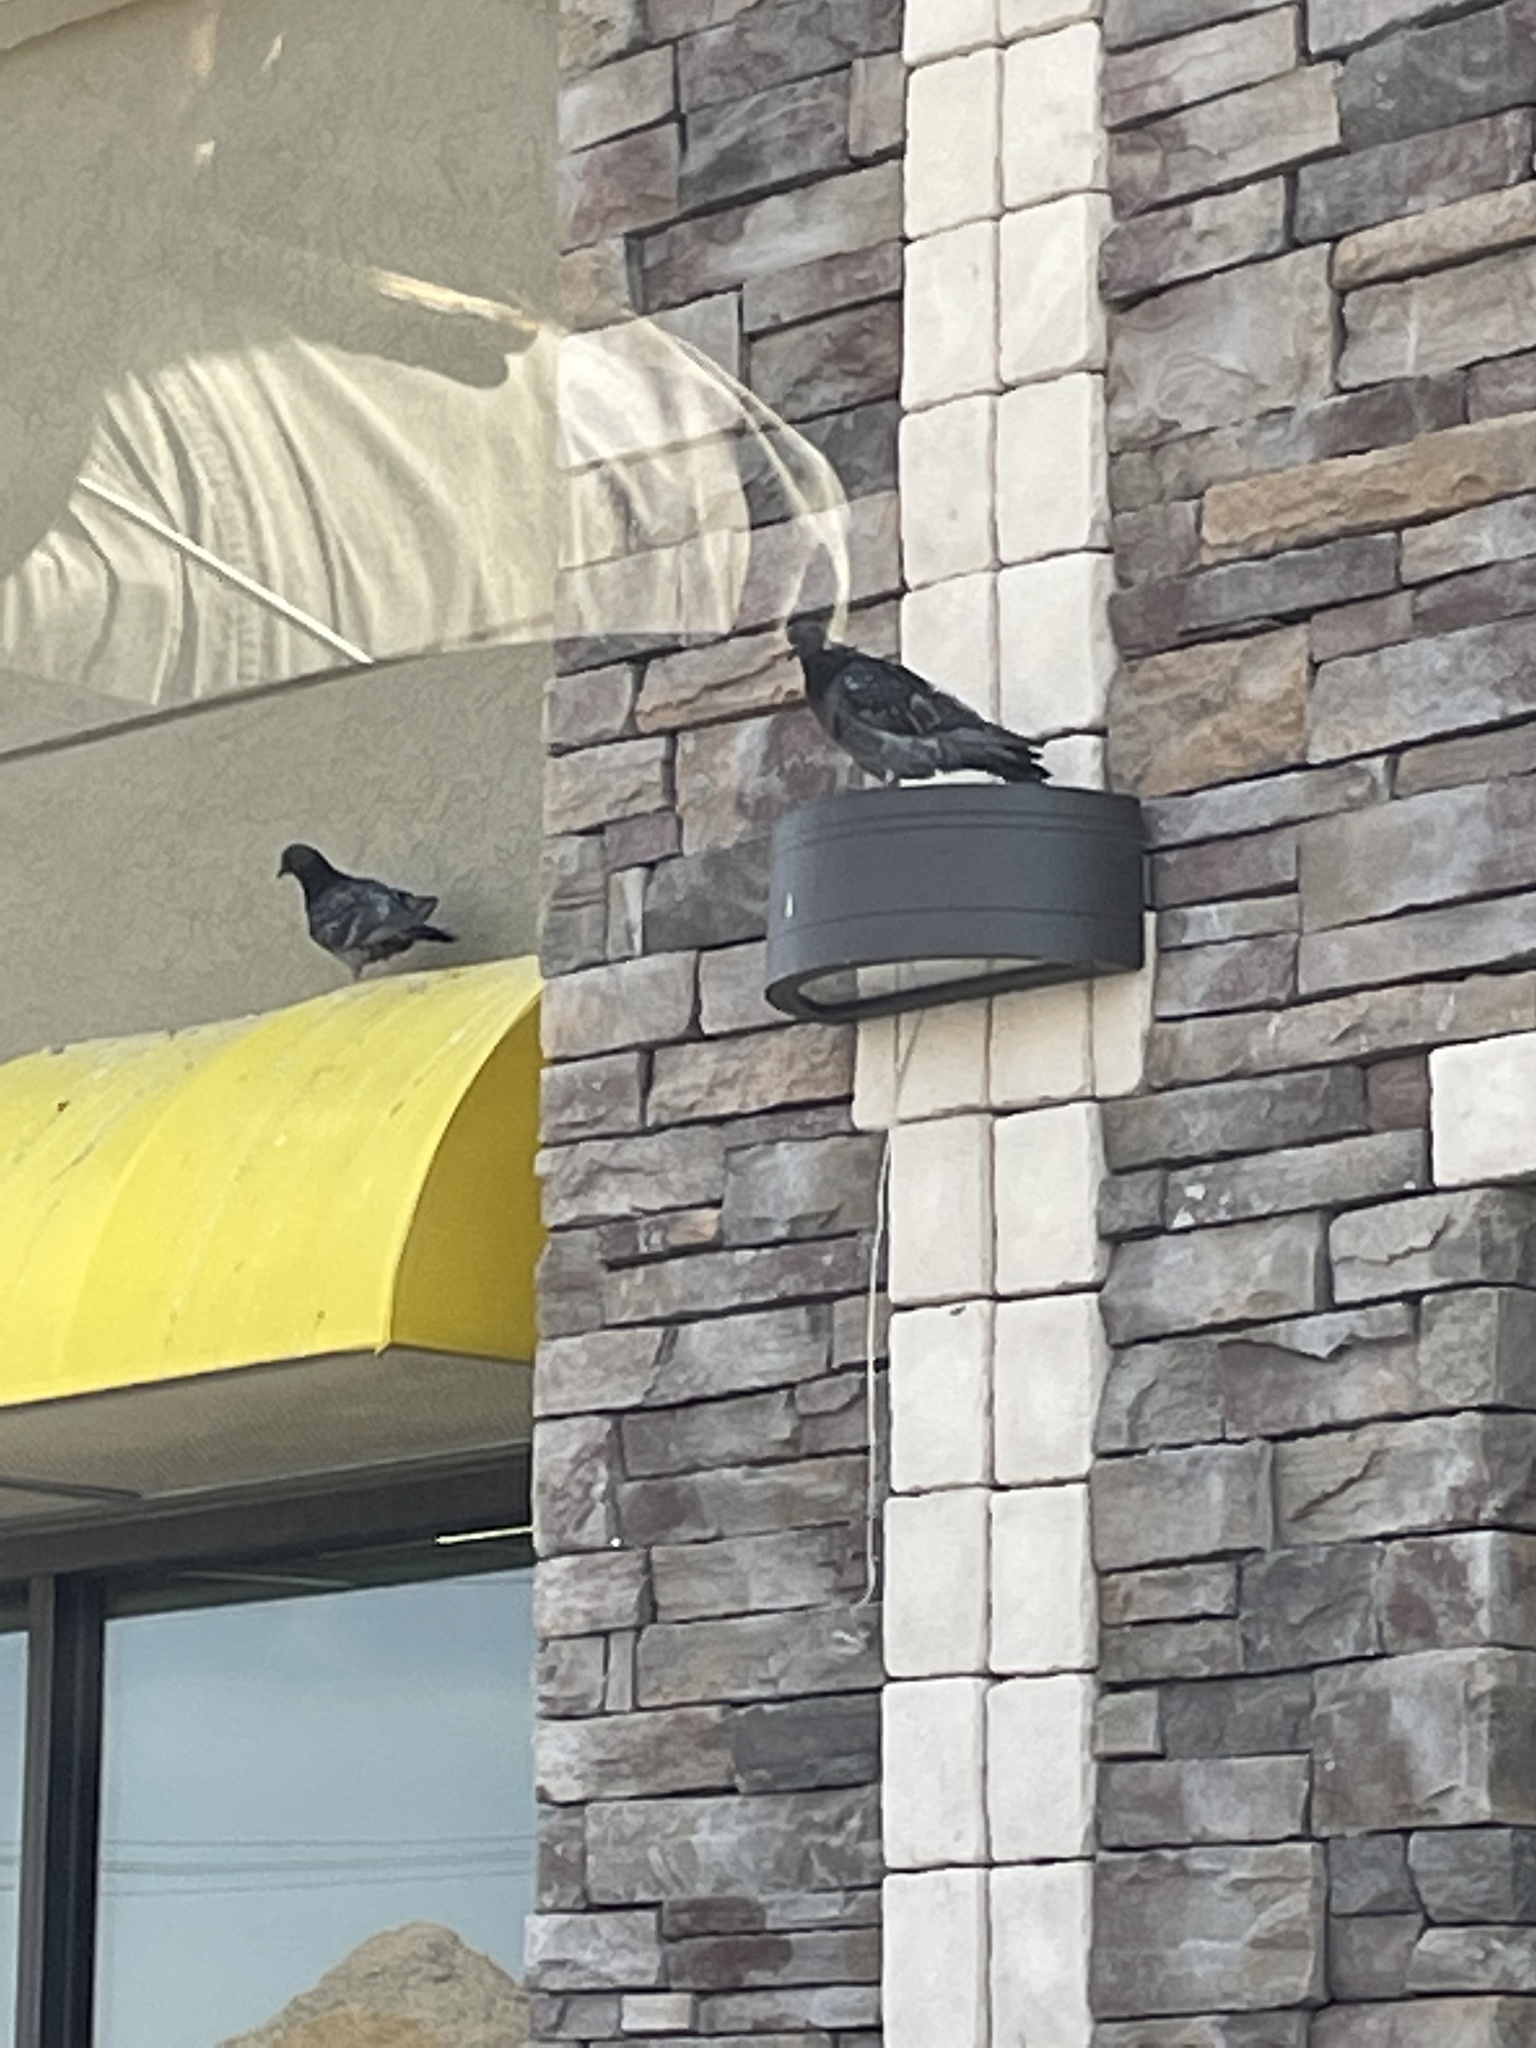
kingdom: Animalia
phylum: Chordata
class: Aves
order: Columbiformes
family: Columbidae
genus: Columba
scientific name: Columba livia
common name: Rock pigeon
